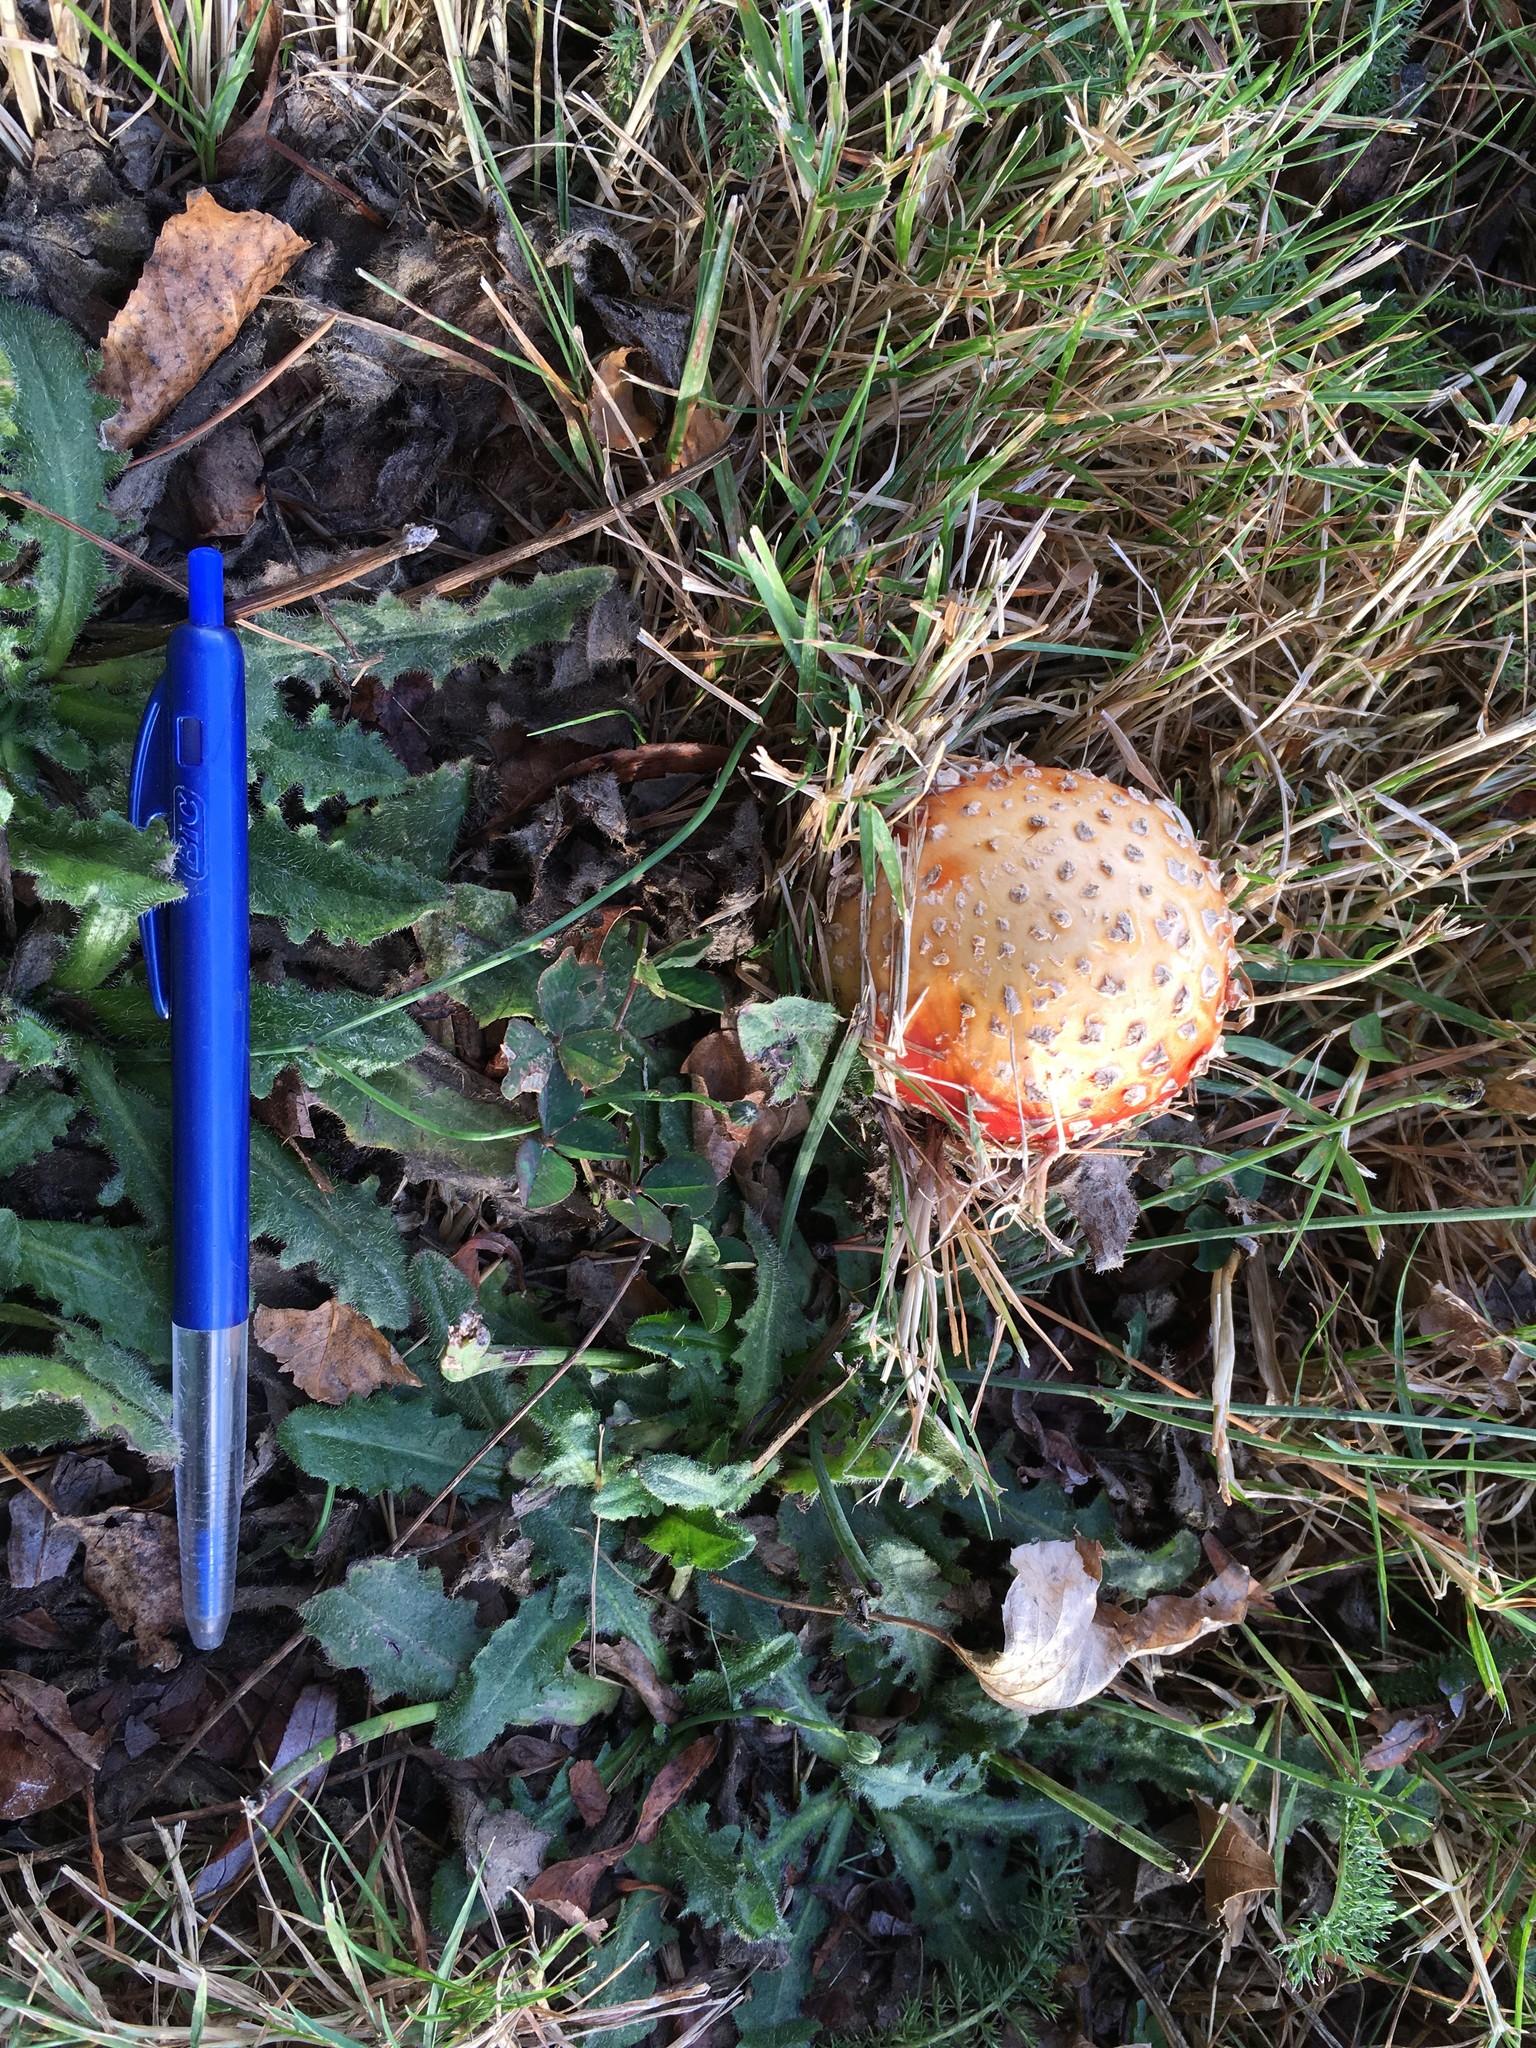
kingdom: Fungi
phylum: Basidiomycota
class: Agaricomycetes
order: Agaricales
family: Amanitaceae
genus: Amanita
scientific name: Amanita muscaria
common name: Fly agaric
